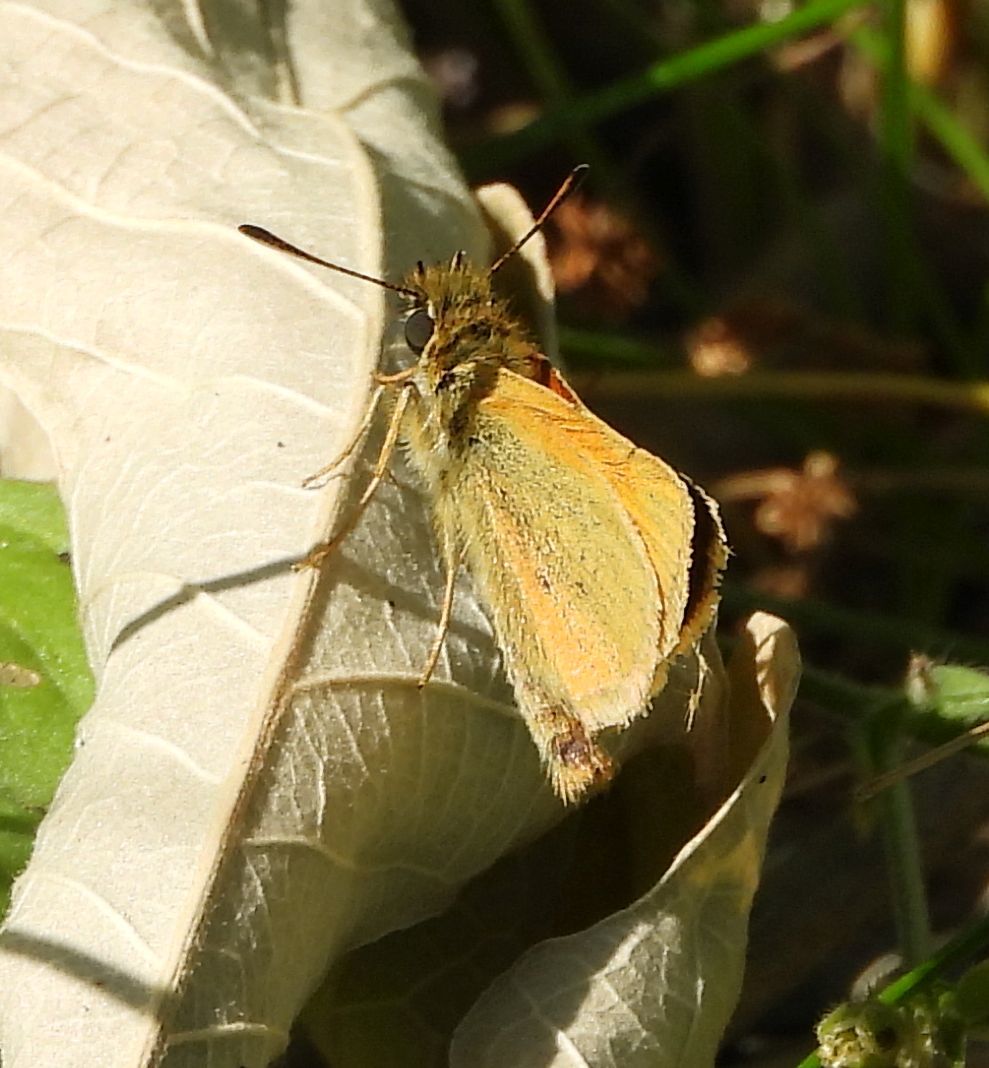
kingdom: Animalia
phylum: Arthropoda
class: Insecta
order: Lepidoptera
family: Hesperiidae
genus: Thymelicus
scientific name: Thymelicus lineola
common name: Essex skipper
